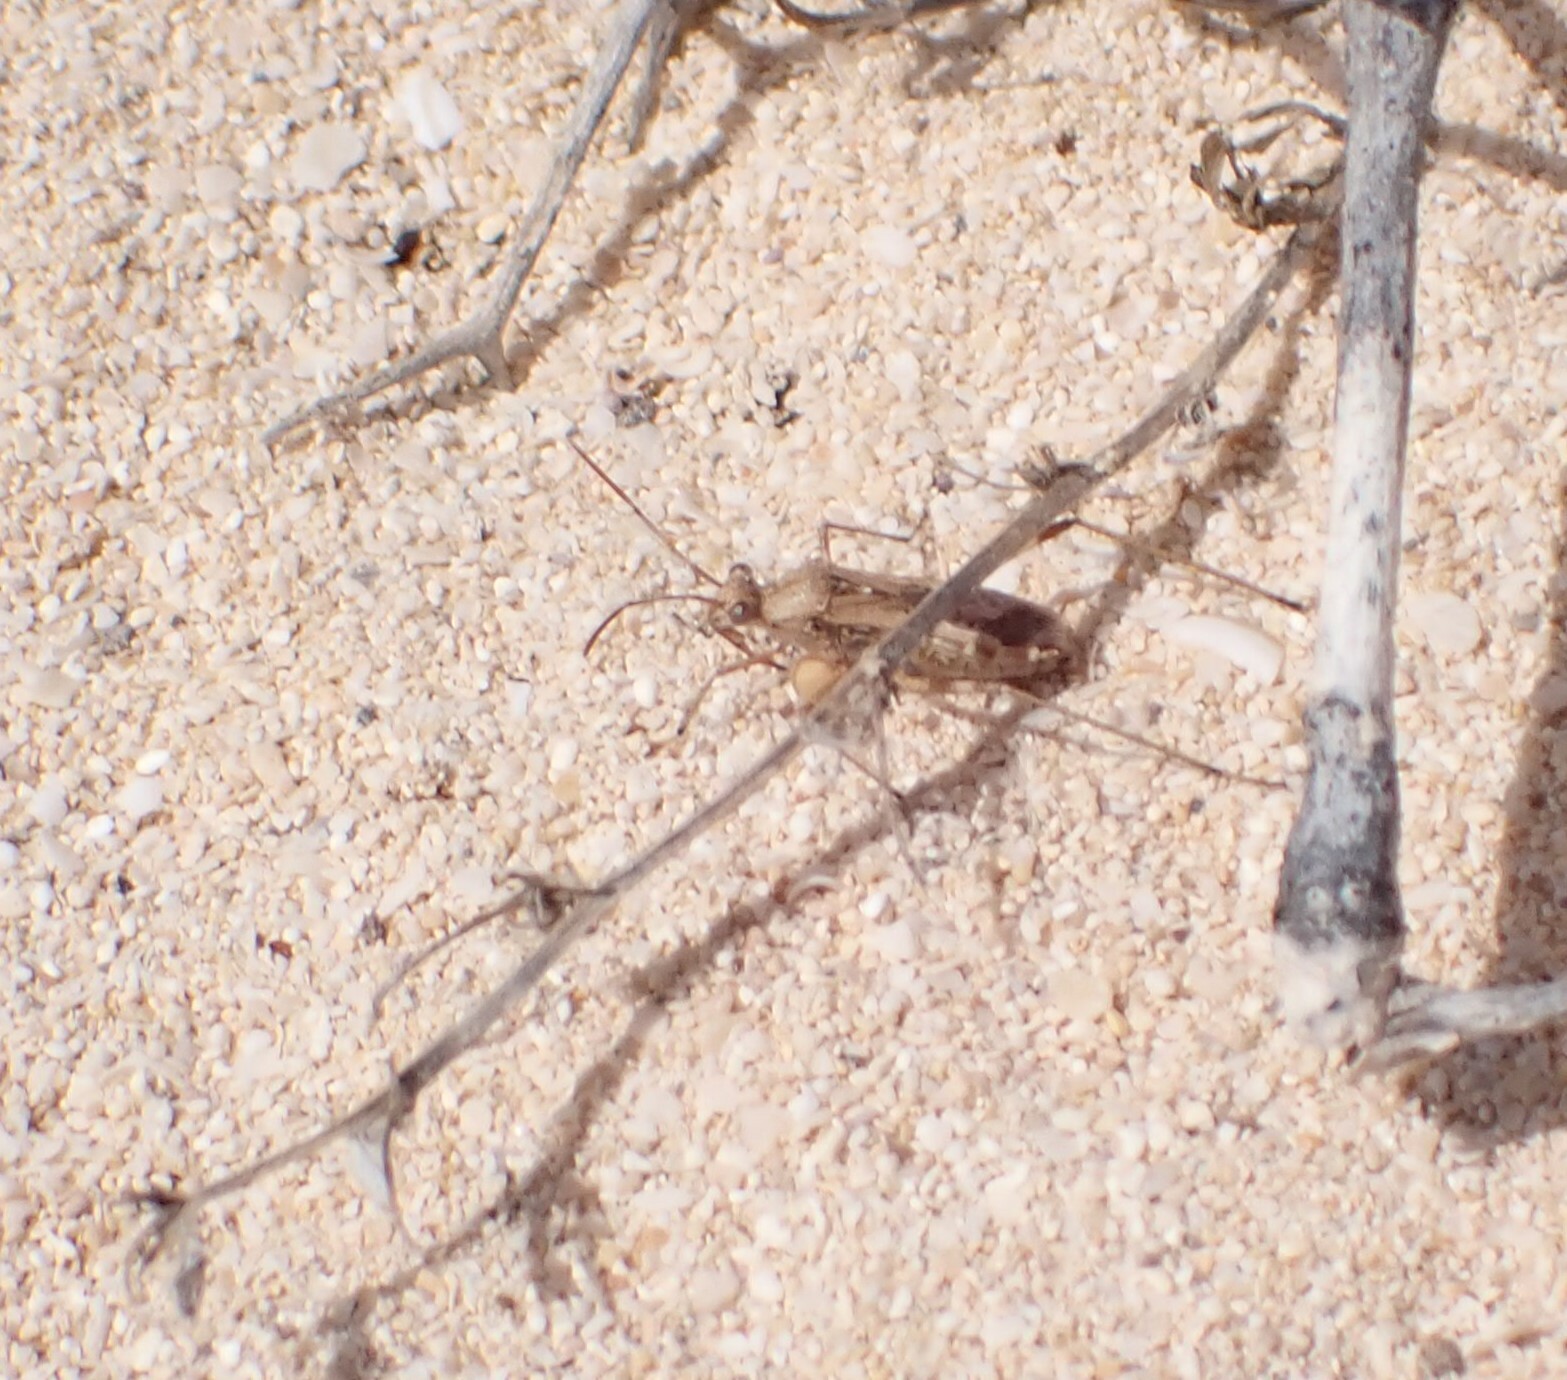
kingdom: Animalia
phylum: Arthropoda
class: Insecta
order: Hemiptera
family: Alydidae
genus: Euthetus
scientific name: Euthetus humilis
